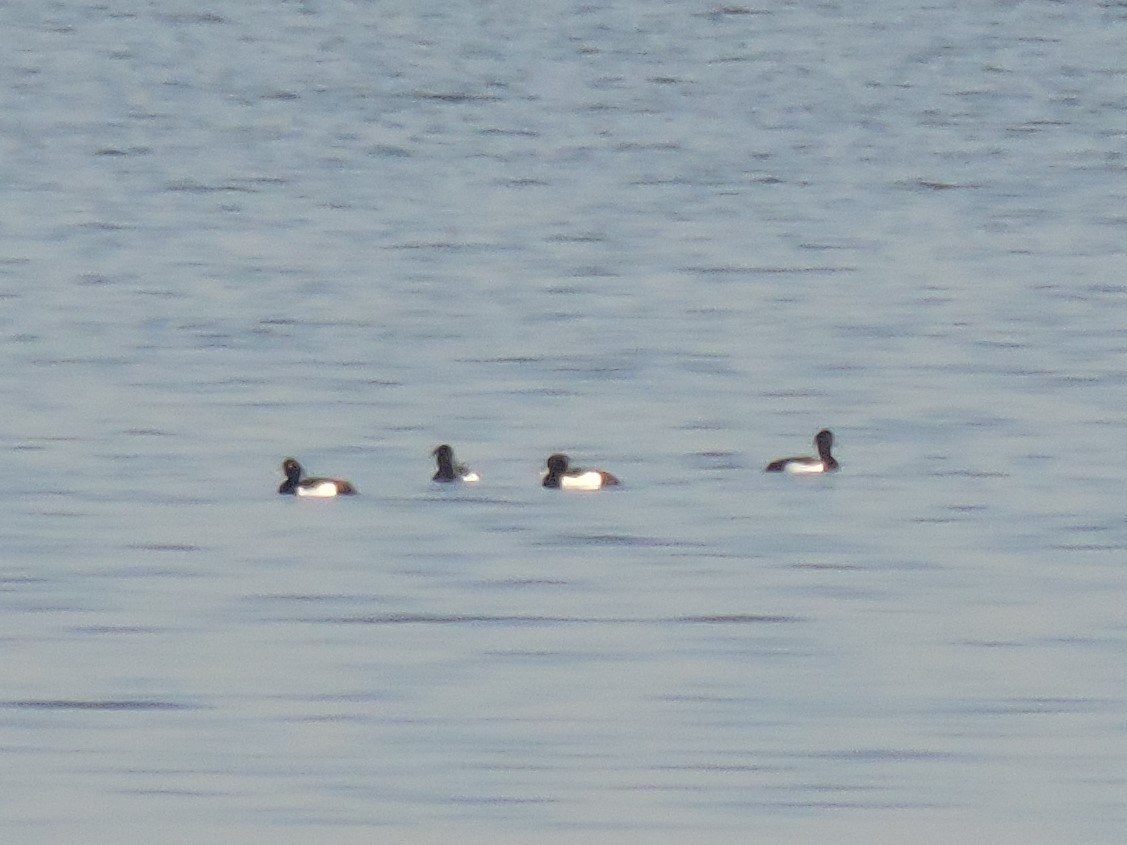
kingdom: Animalia
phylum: Chordata
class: Aves
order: Anseriformes
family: Anatidae
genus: Aythya
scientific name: Aythya fuligula
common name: Tufted duck
